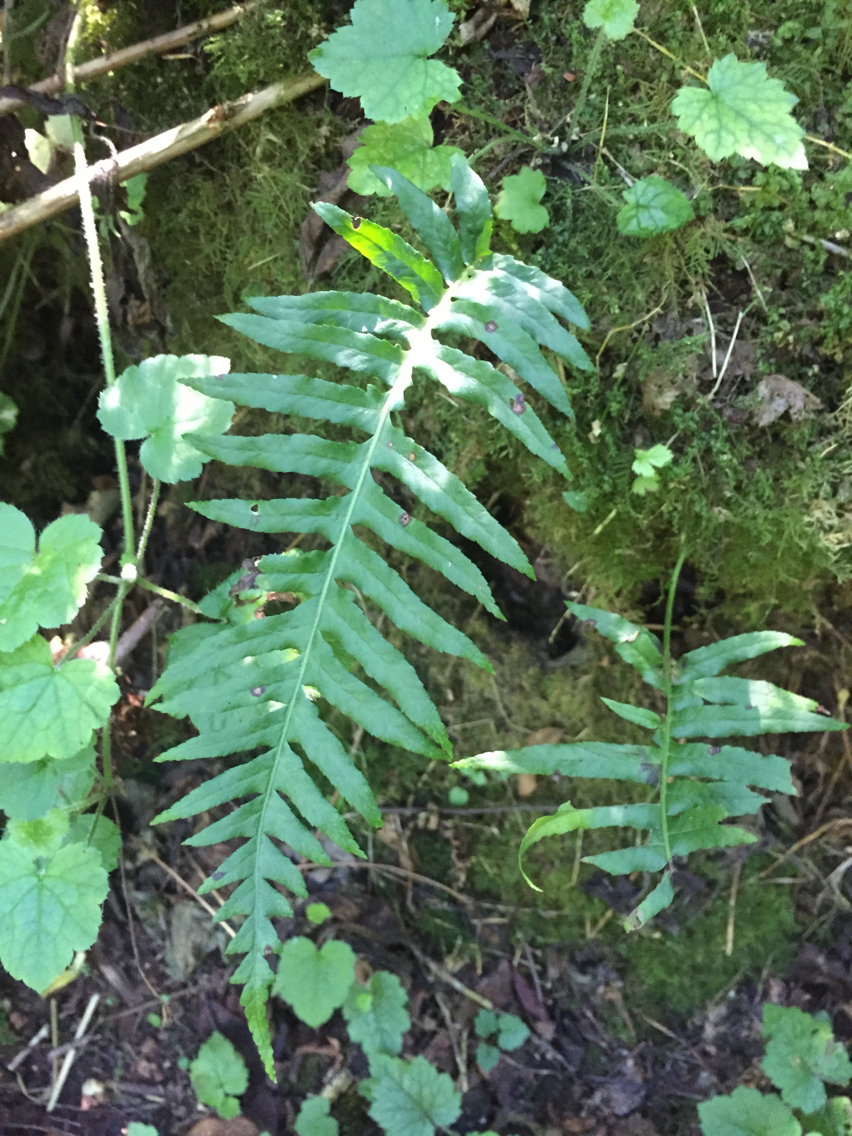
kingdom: Plantae
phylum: Tracheophyta
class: Polypodiopsida
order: Polypodiales
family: Polypodiaceae
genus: Polypodium
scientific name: Polypodium glycyrrhiza
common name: Licorice fern
